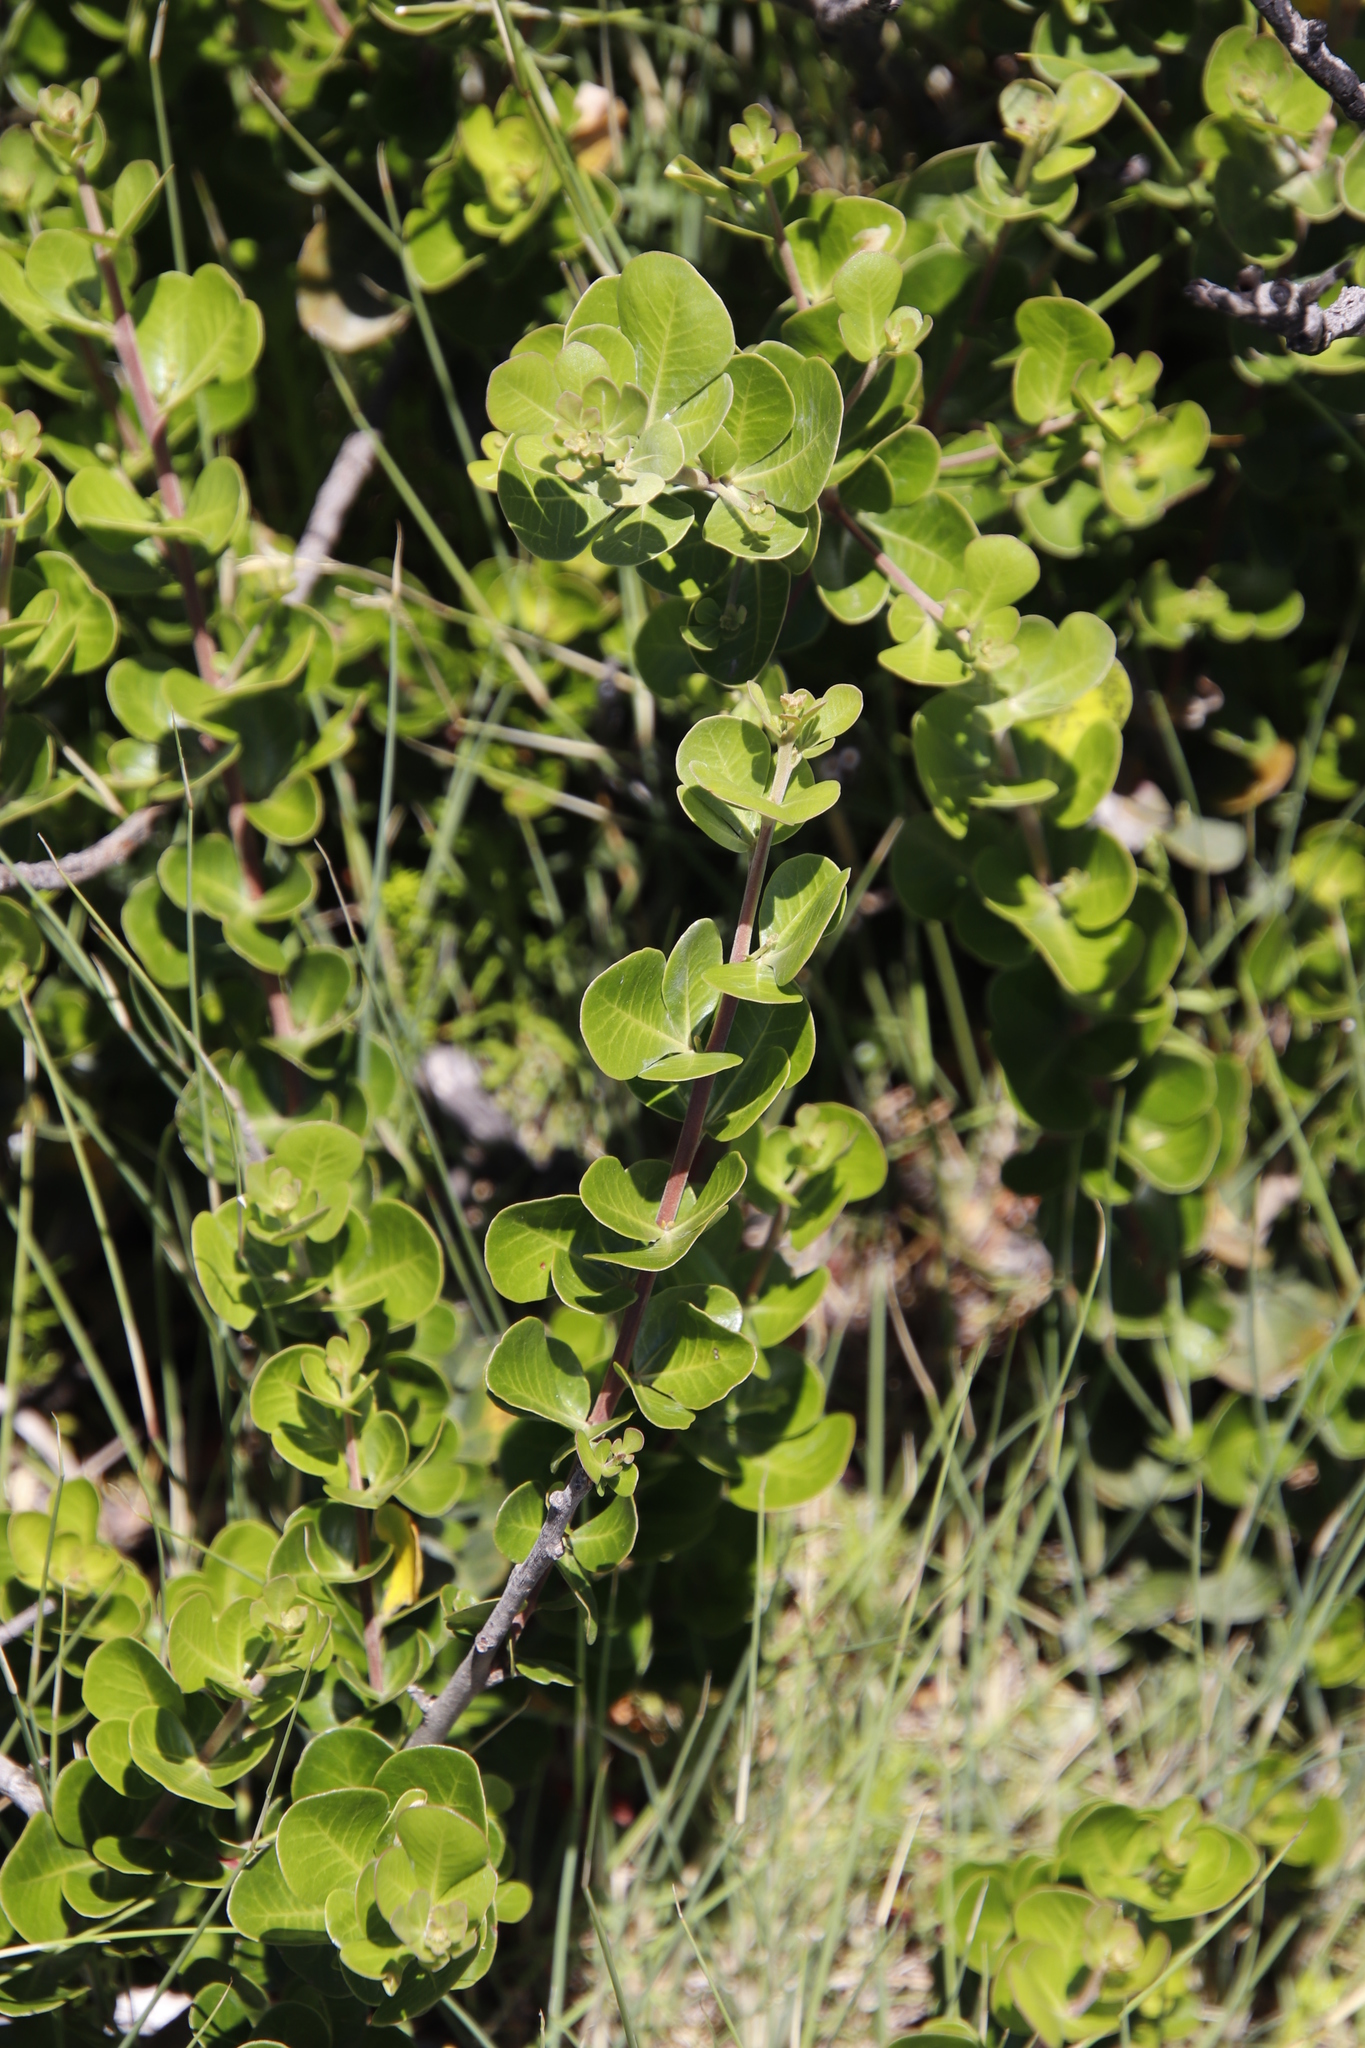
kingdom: Plantae
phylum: Tracheophyta
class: Magnoliopsida
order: Sapindales
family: Anacardiaceae
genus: Searsia
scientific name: Searsia lucida
